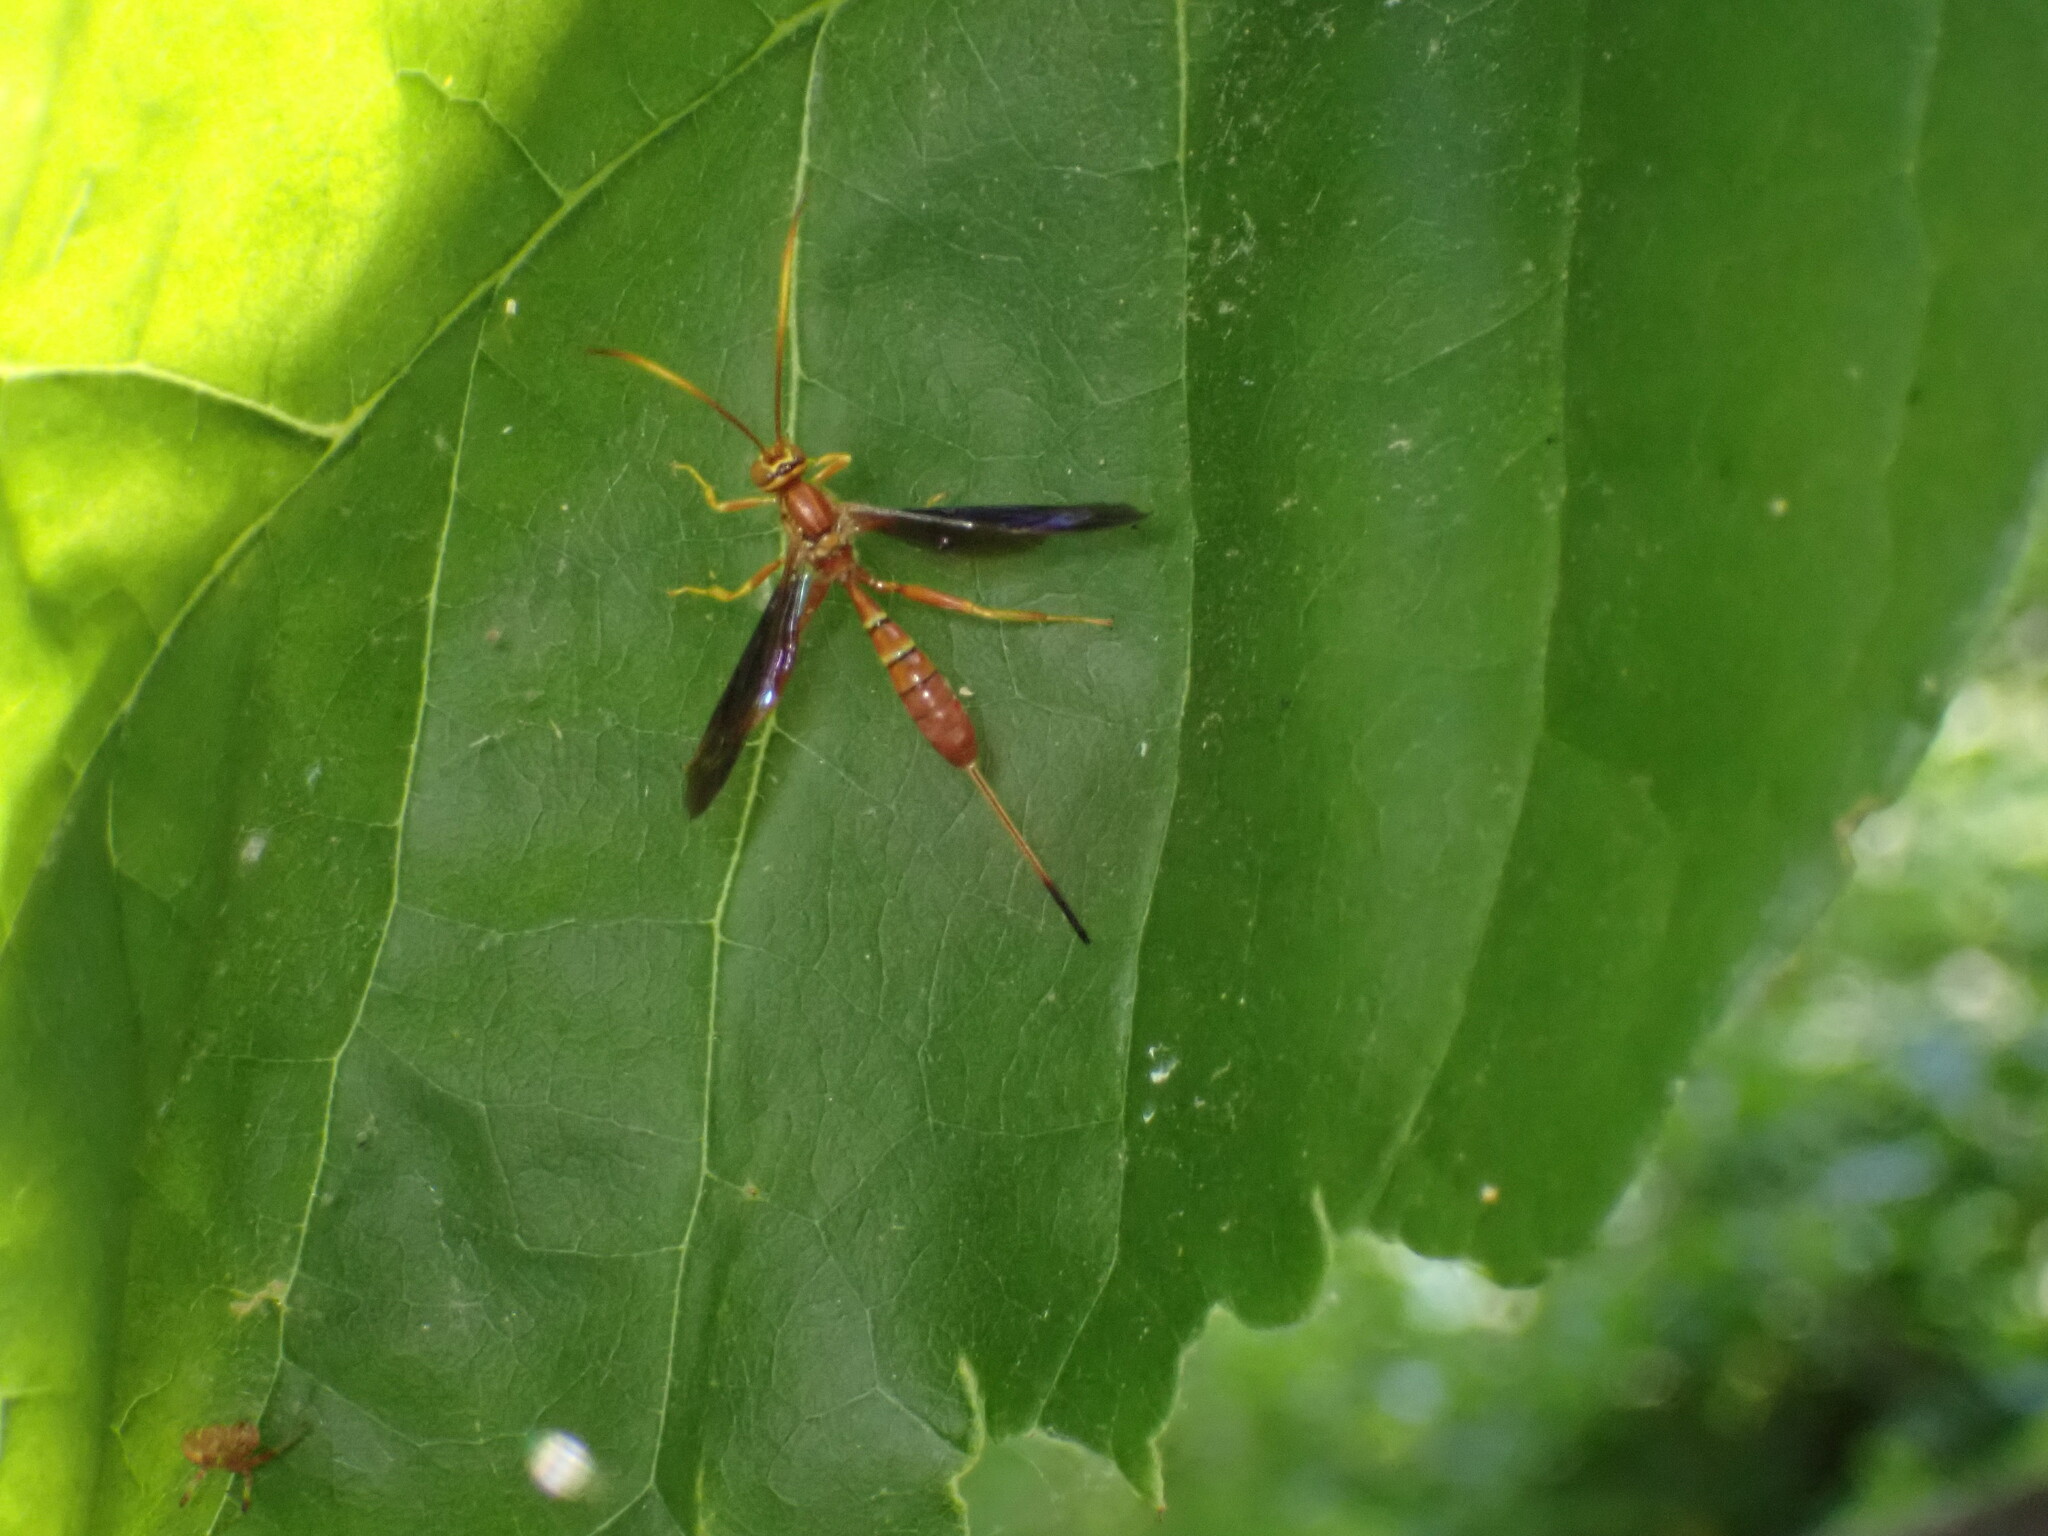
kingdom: Animalia
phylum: Arthropoda
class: Insecta
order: Hymenoptera
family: Ichneumonidae
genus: Labena
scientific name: Labena grallator
